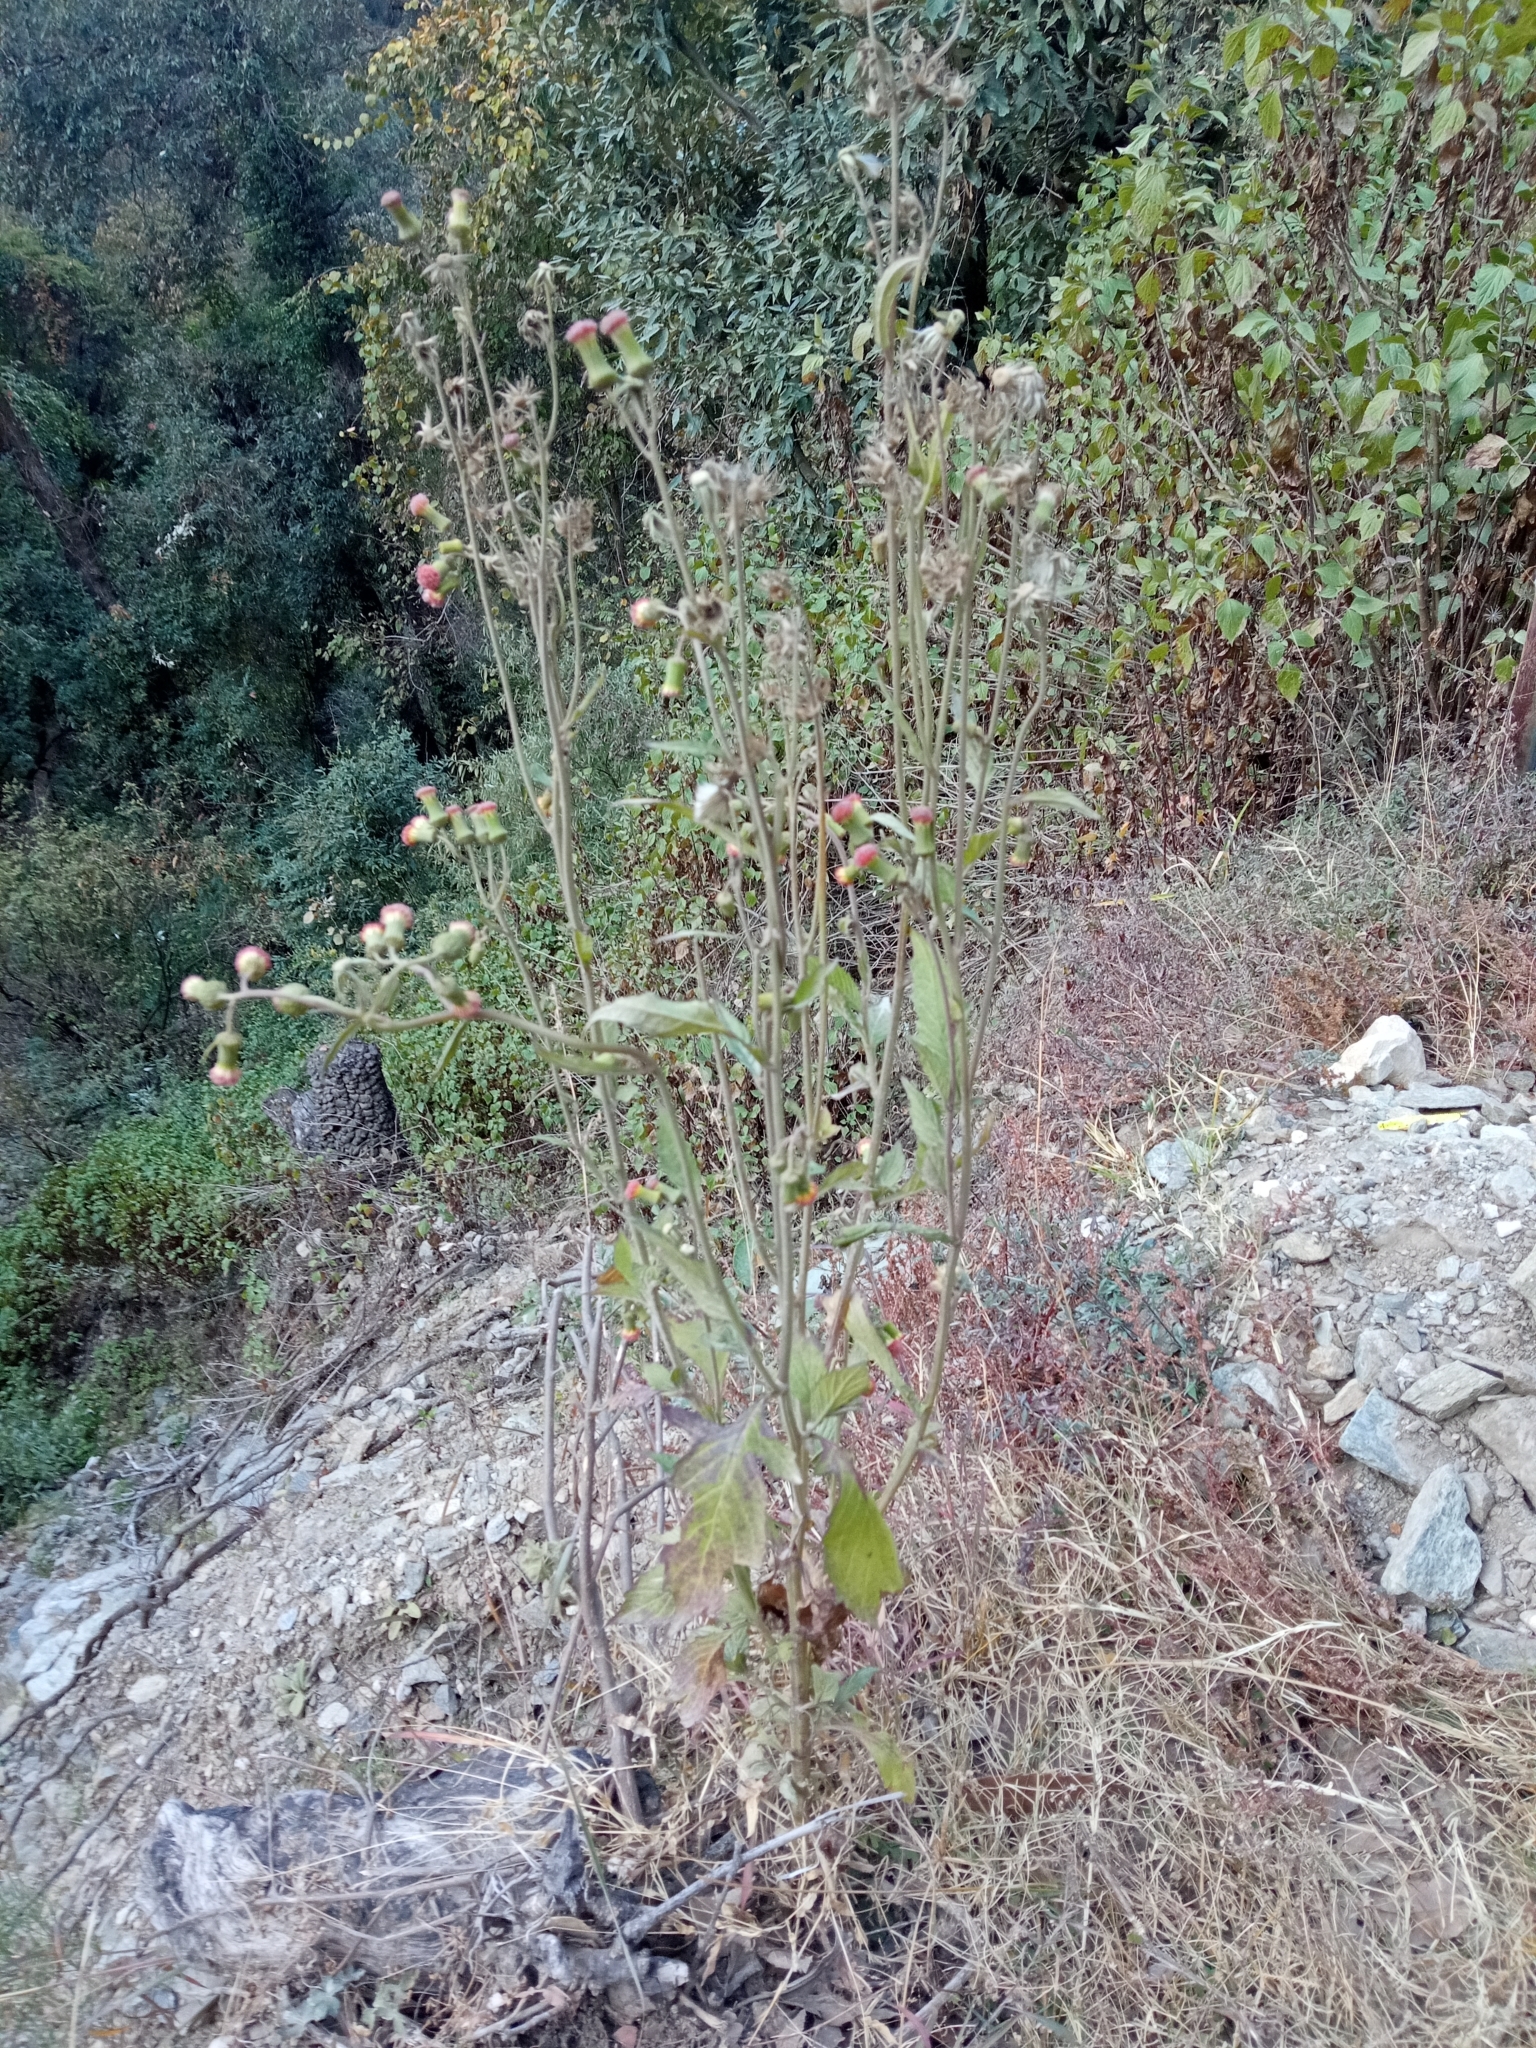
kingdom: Plantae
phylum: Tracheophyta
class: Magnoliopsida
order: Asterales
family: Asteraceae
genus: Crassocephalum
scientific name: Crassocephalum crepidioides
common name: Redflower ragleaf
